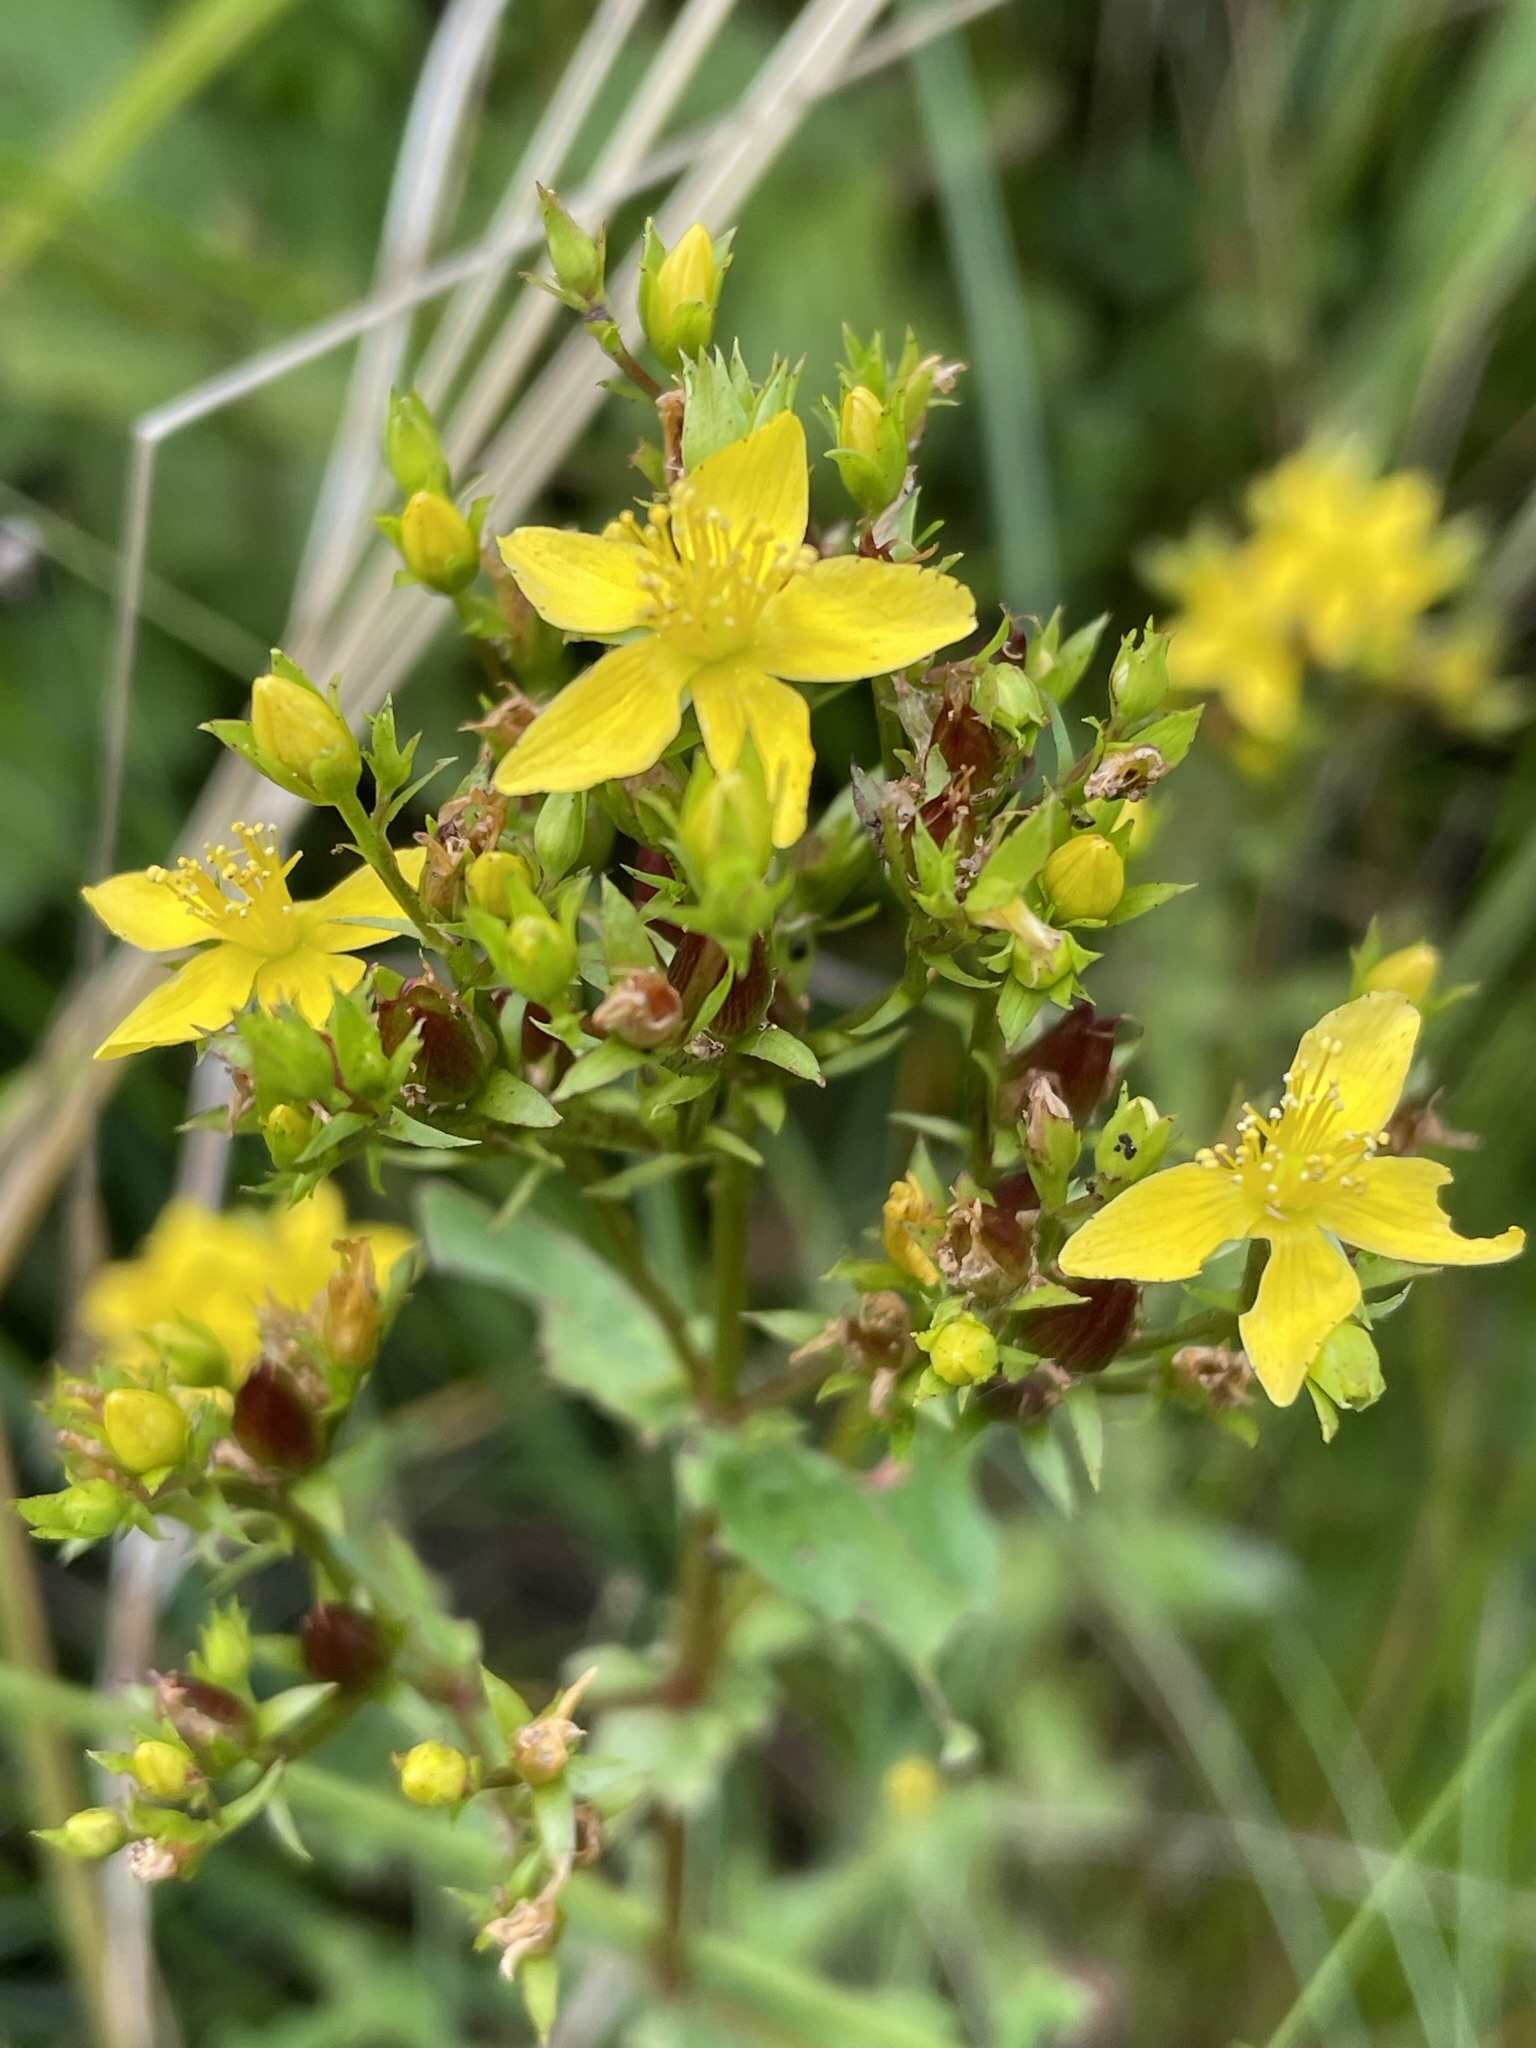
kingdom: Plantae
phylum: Tracheophyta
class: Magnoliopsida
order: Malpighiales
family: Hypericaceae
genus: Hypericum
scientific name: Hypericum tetrapterum
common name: Square-stalked st. john's-wort
